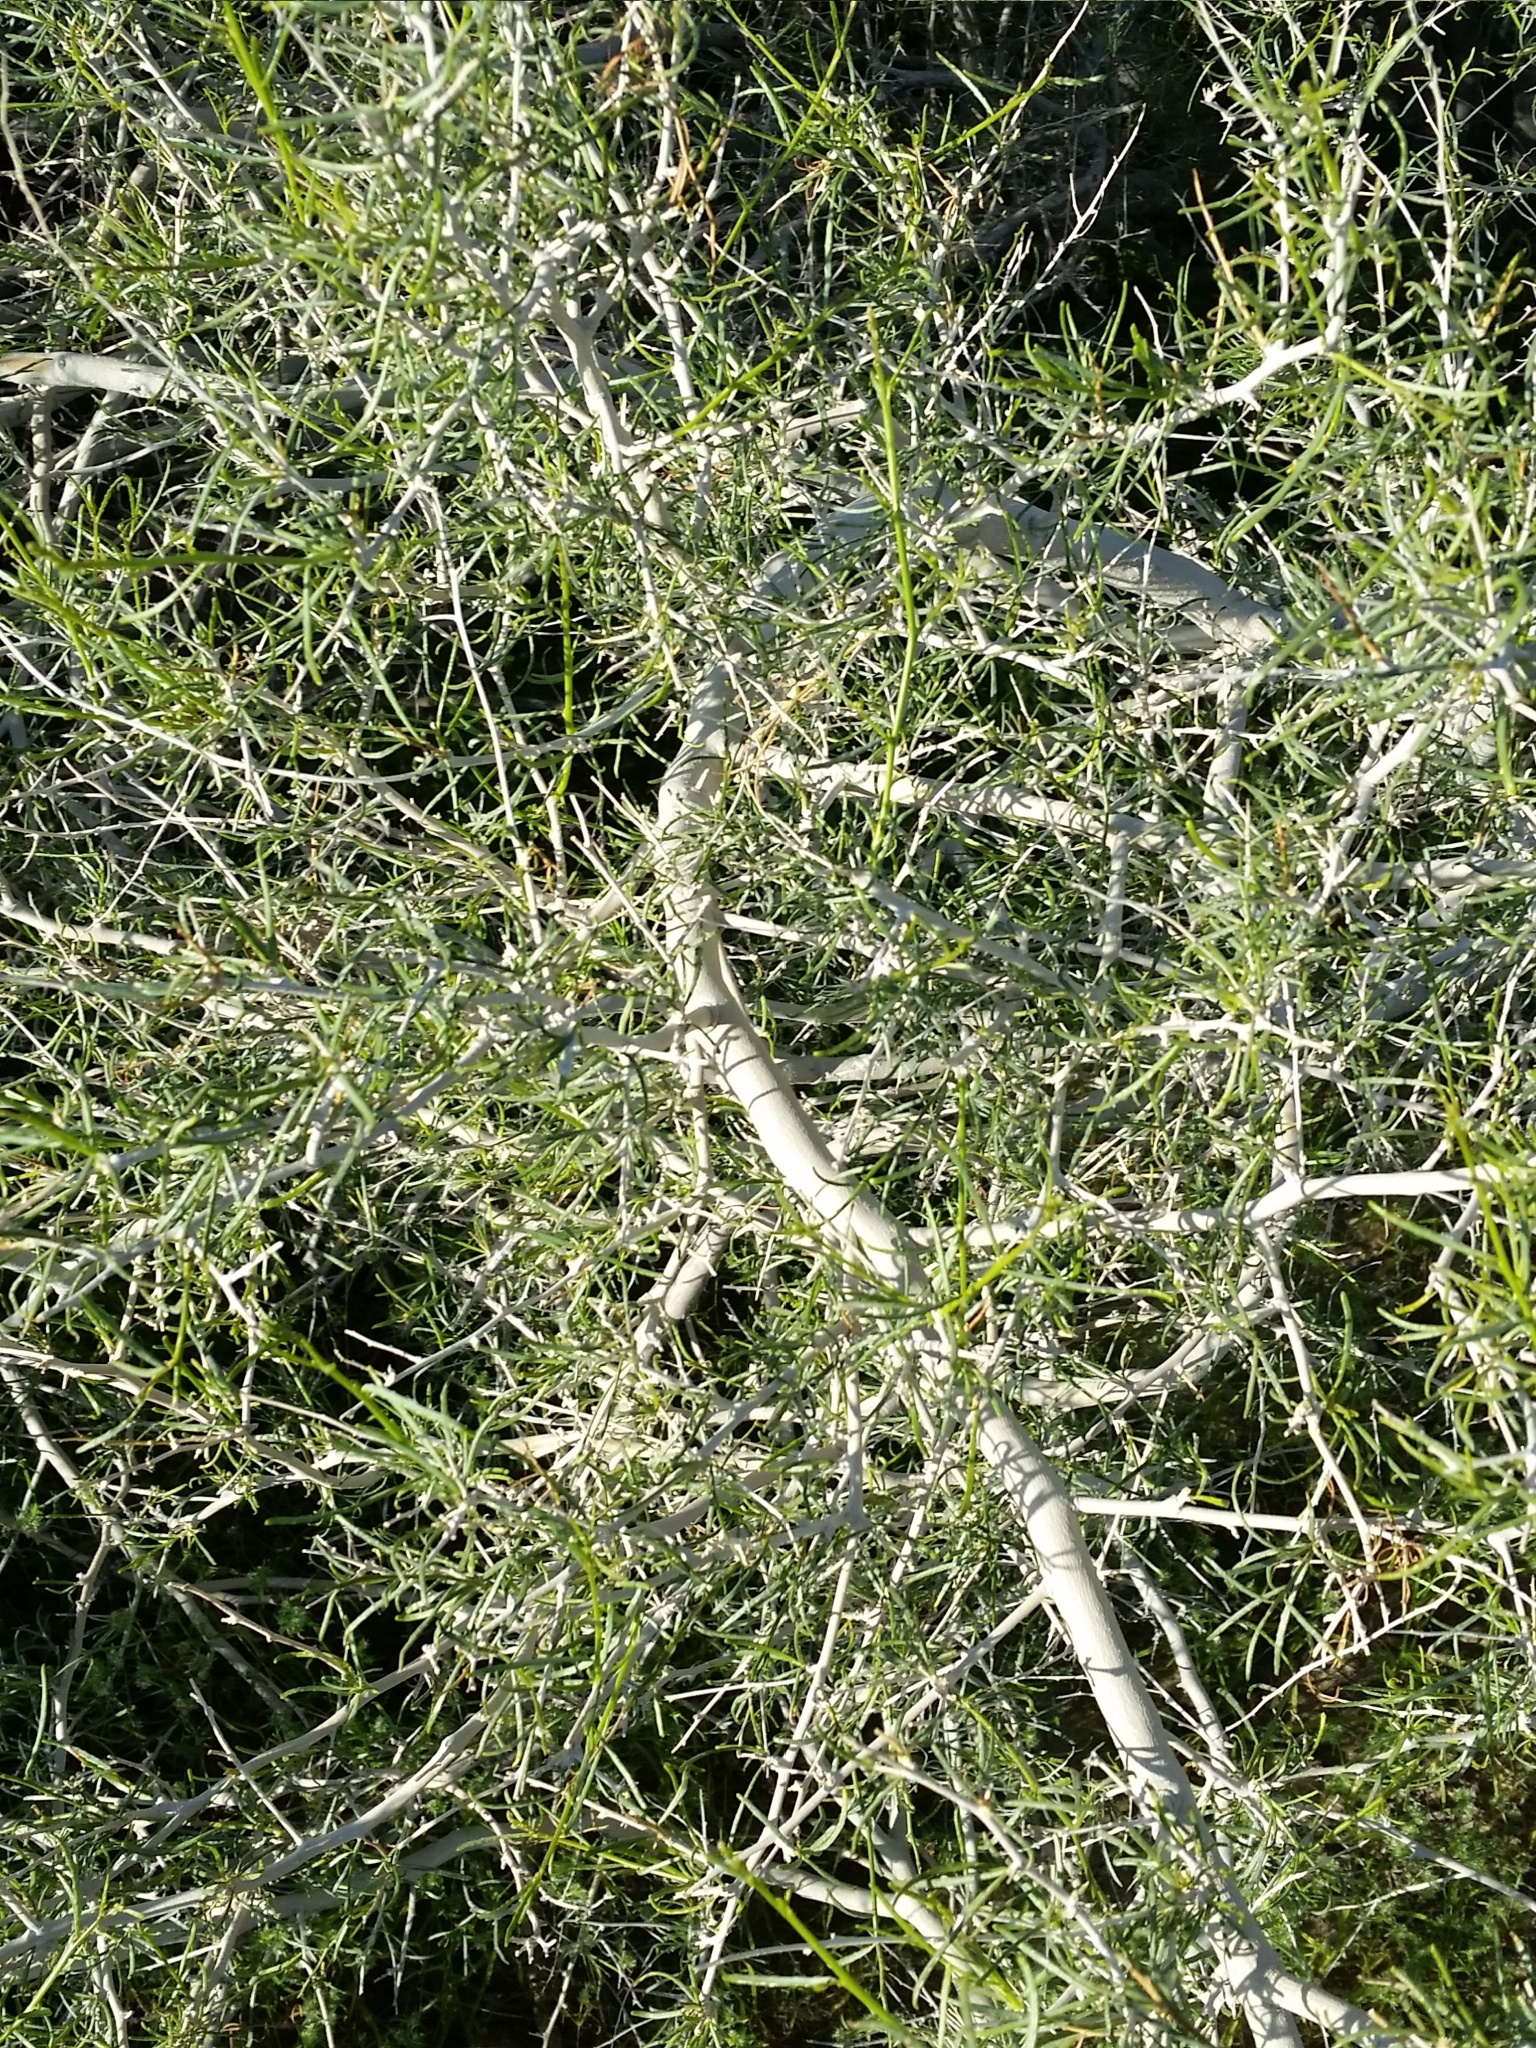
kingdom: Plantae
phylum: Tracheophyta
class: Magnoliopsida
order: Fabales
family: Fabaceae
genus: Psorothamnus
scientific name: Psorothamnus schottii
